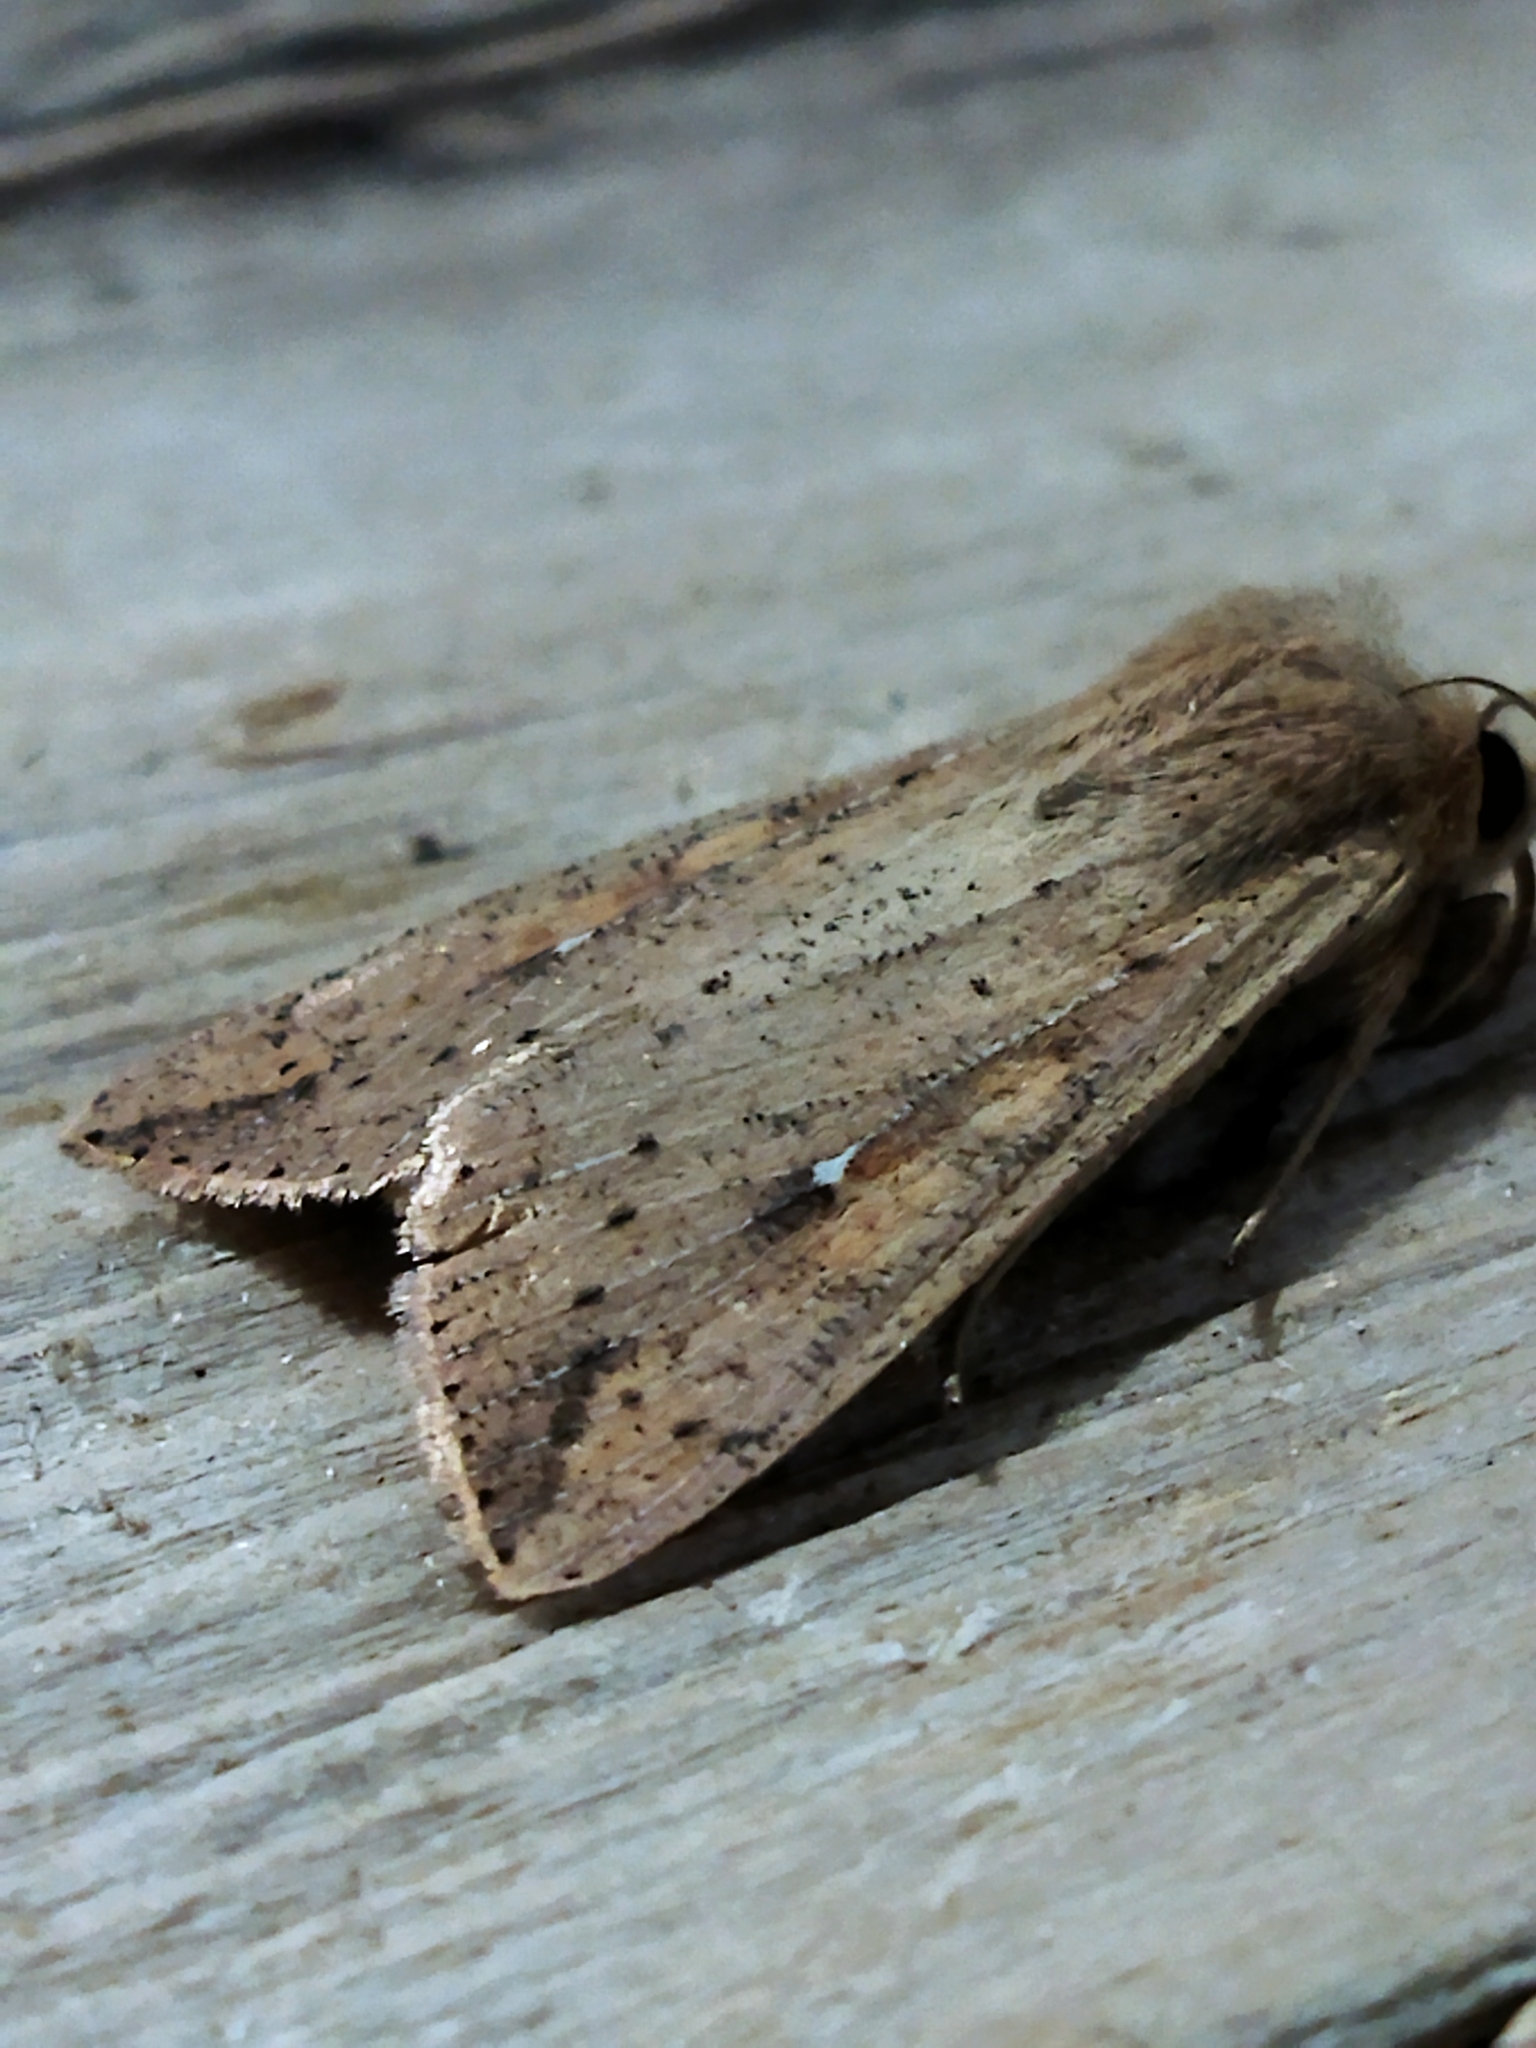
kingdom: Animalia
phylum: Arthropoda
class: Insecta
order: Lepidoptera
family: Noctuidae
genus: Mythimna
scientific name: Mythimna unipuncta
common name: White-speck
